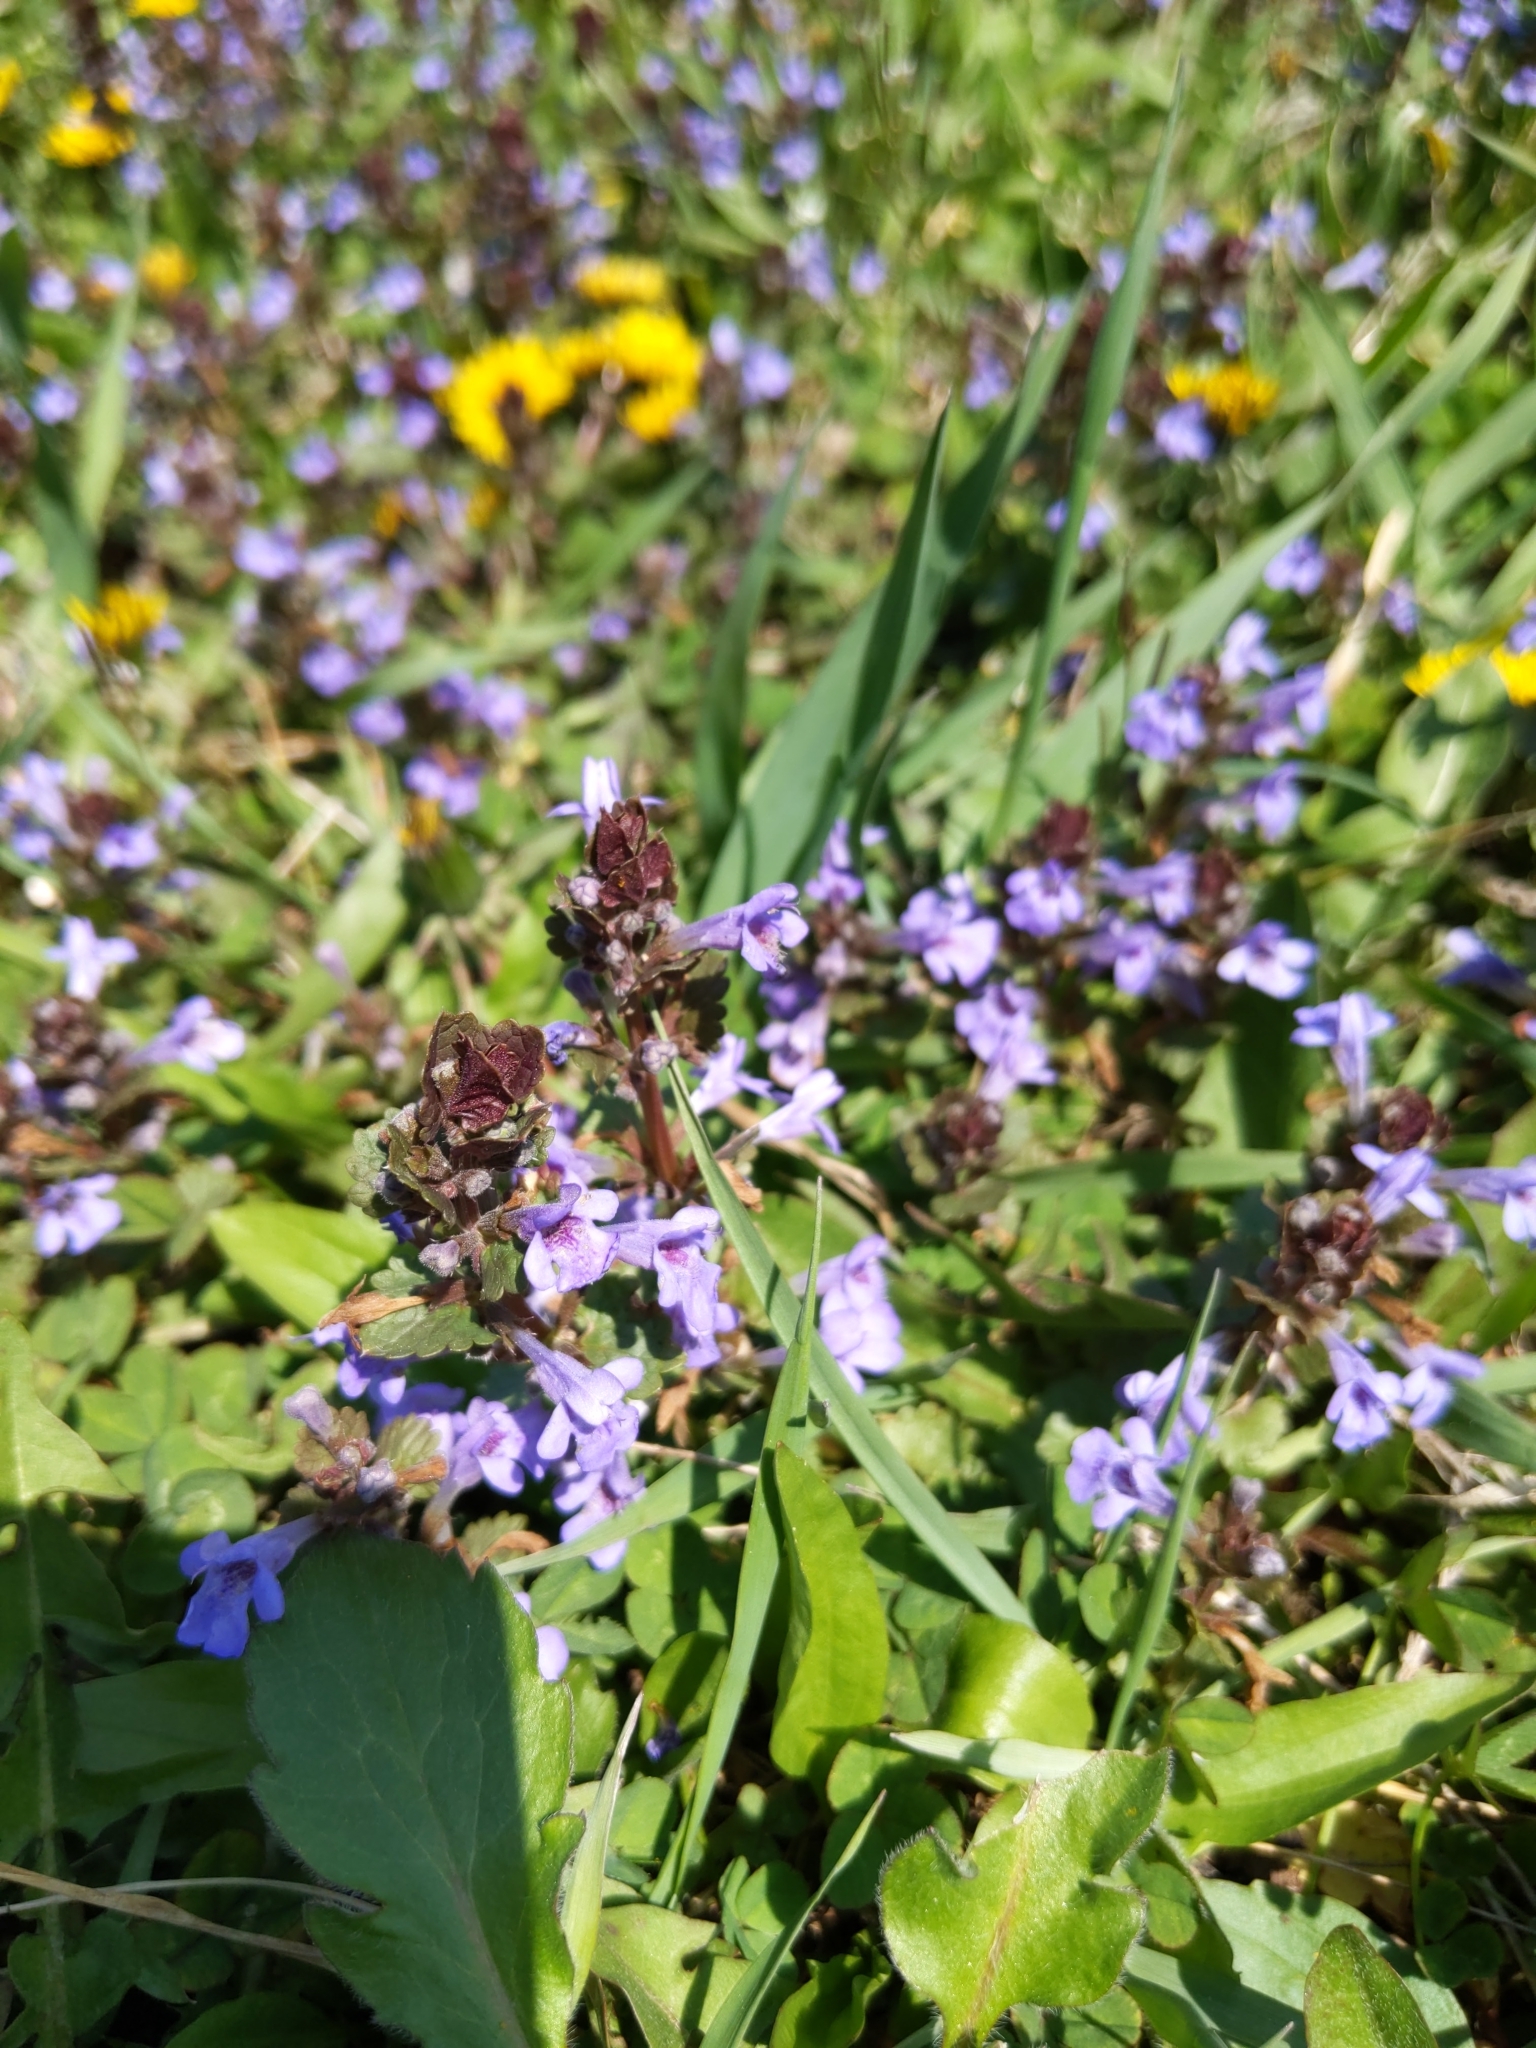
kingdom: Plantae
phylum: Tracheophyta
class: Magnoliopsida
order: Lamiales
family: Lamiaceae
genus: Glechoma
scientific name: Glechoma hederacea
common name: Ground ivy
